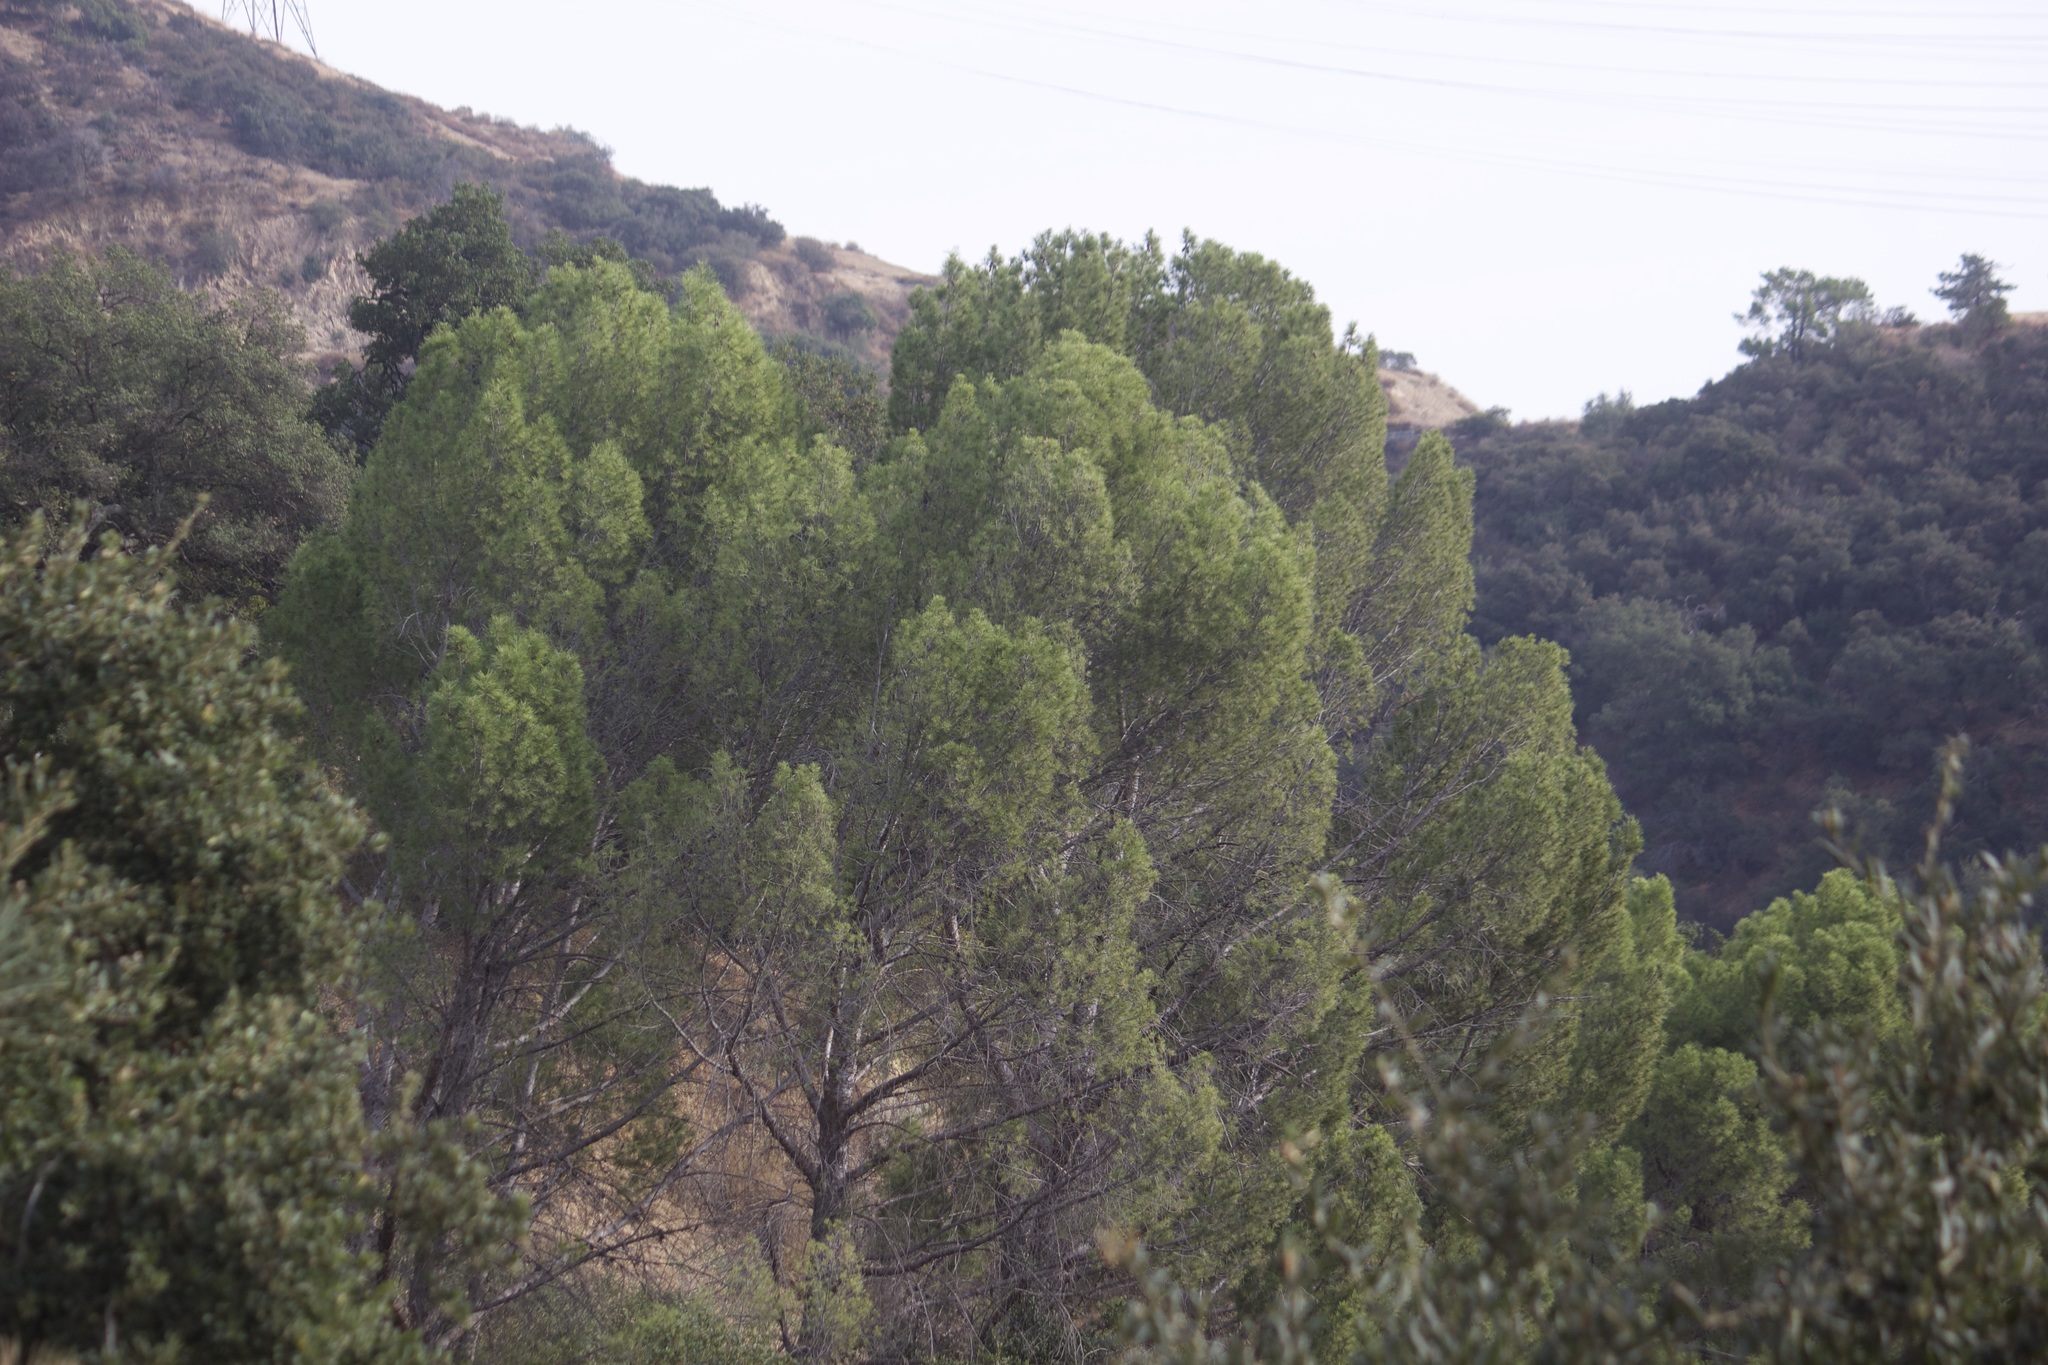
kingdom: Plantae
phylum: Tracheophyta
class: Pinopsida
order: Pinales
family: Pinaceae
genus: Pinus
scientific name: Pinus halepensis
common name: Aleppo pine
